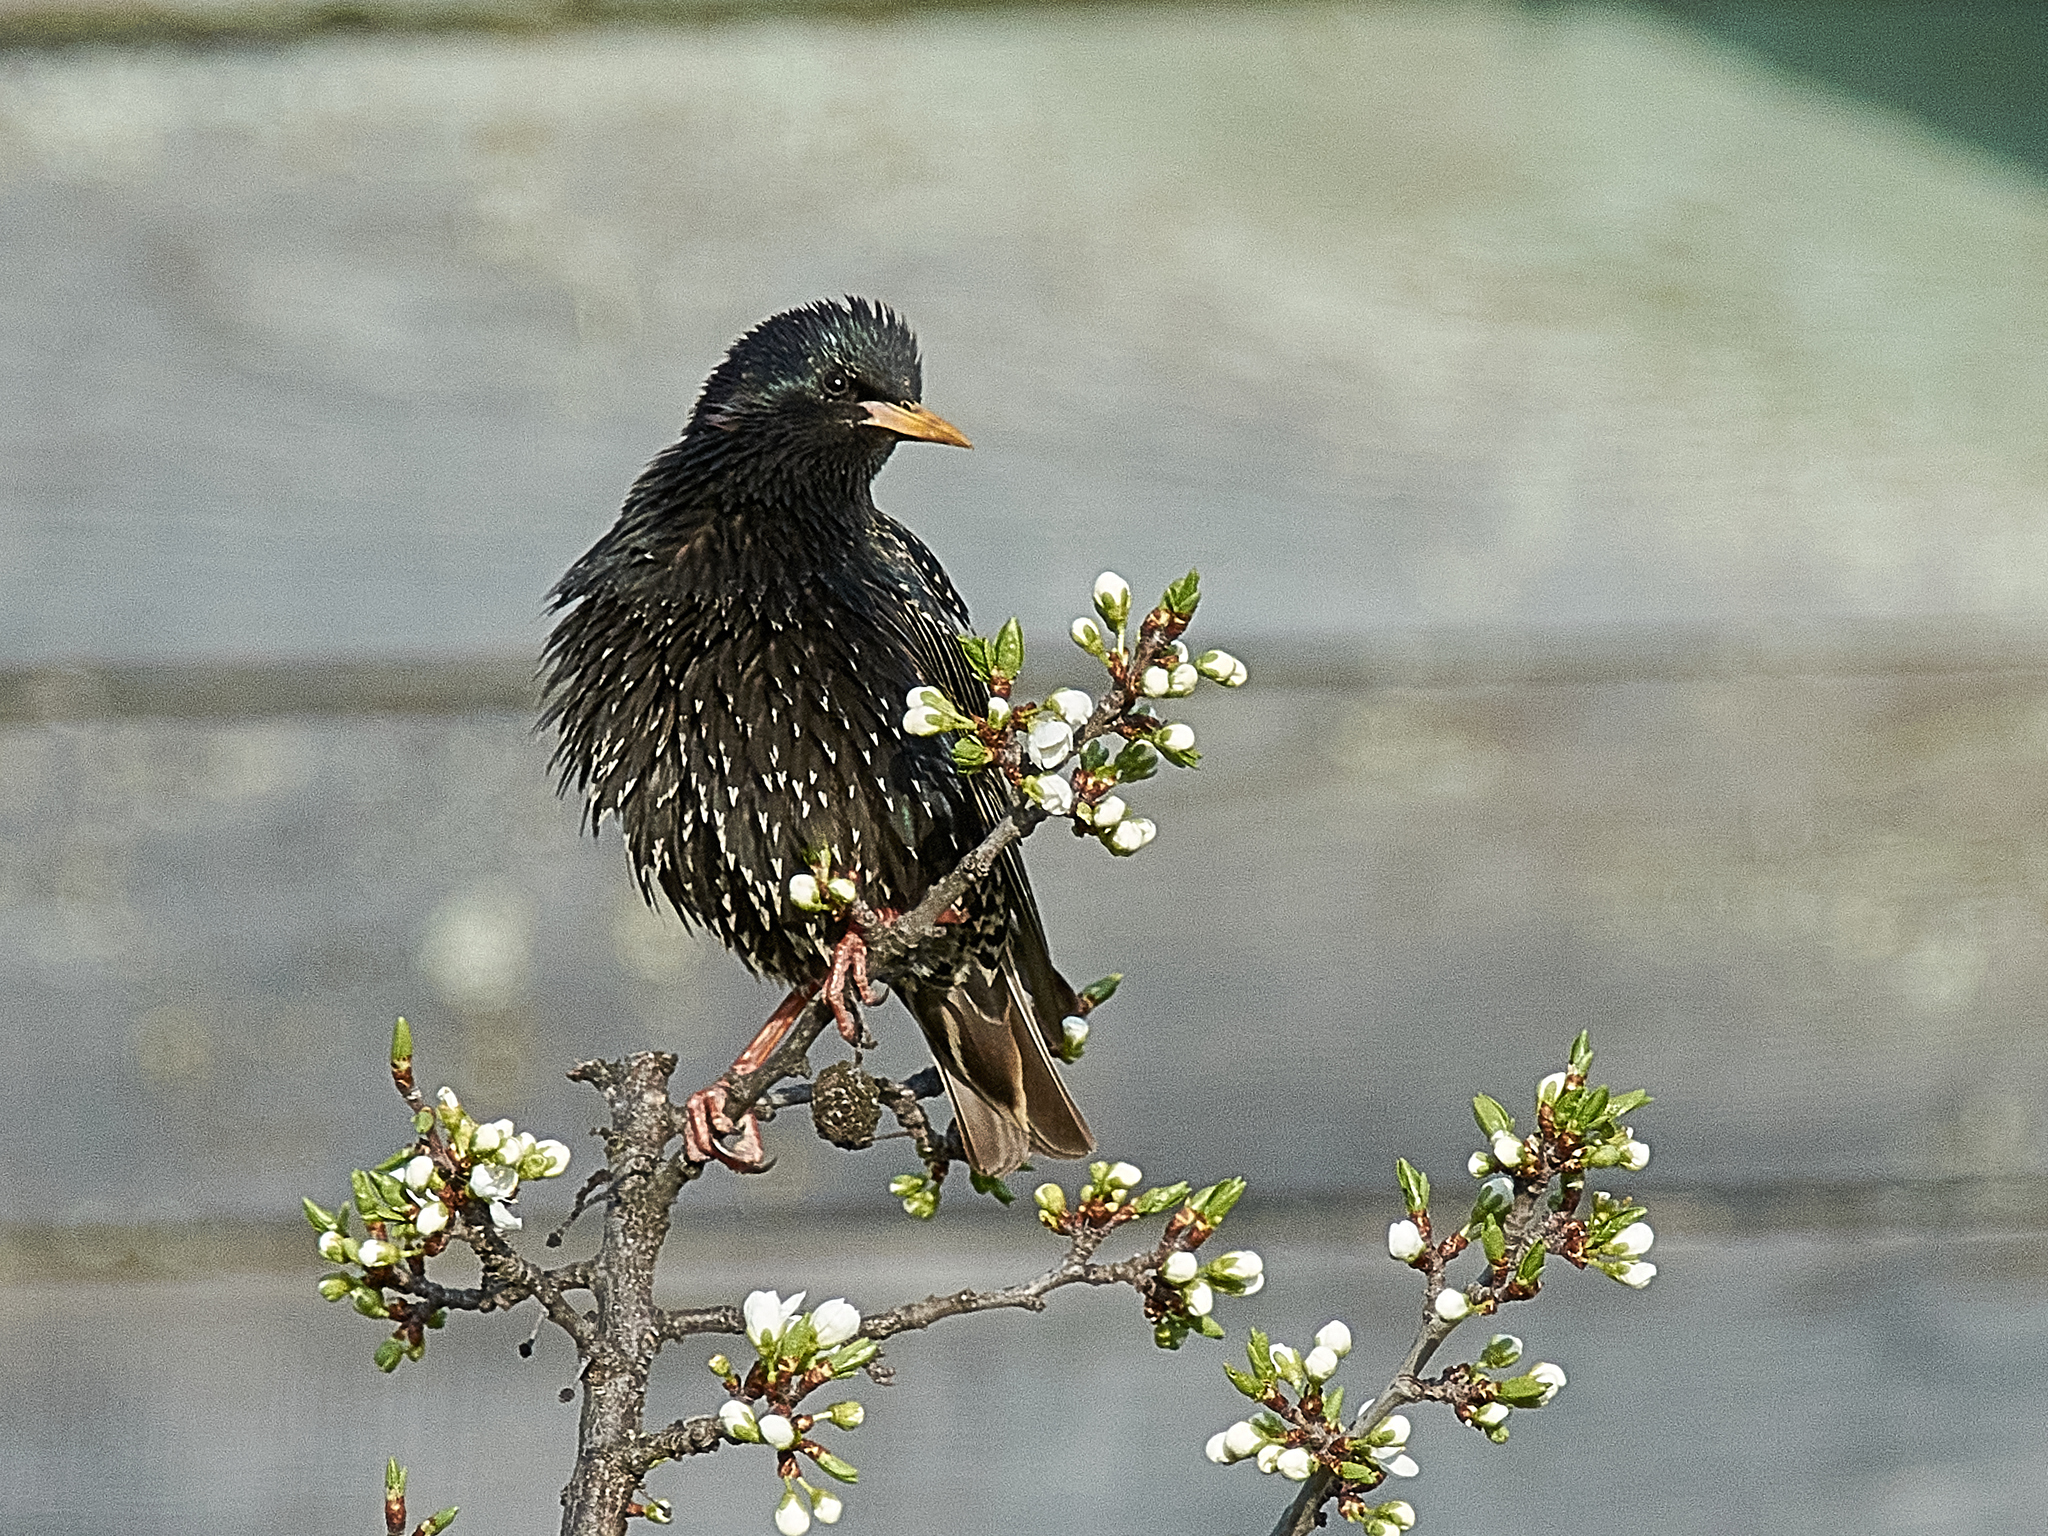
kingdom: Animalia
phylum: Chordata
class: Aves
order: Passeriformes
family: Sturnidae
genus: Sturnus
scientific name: Sturnus vulgaris
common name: Common starling
